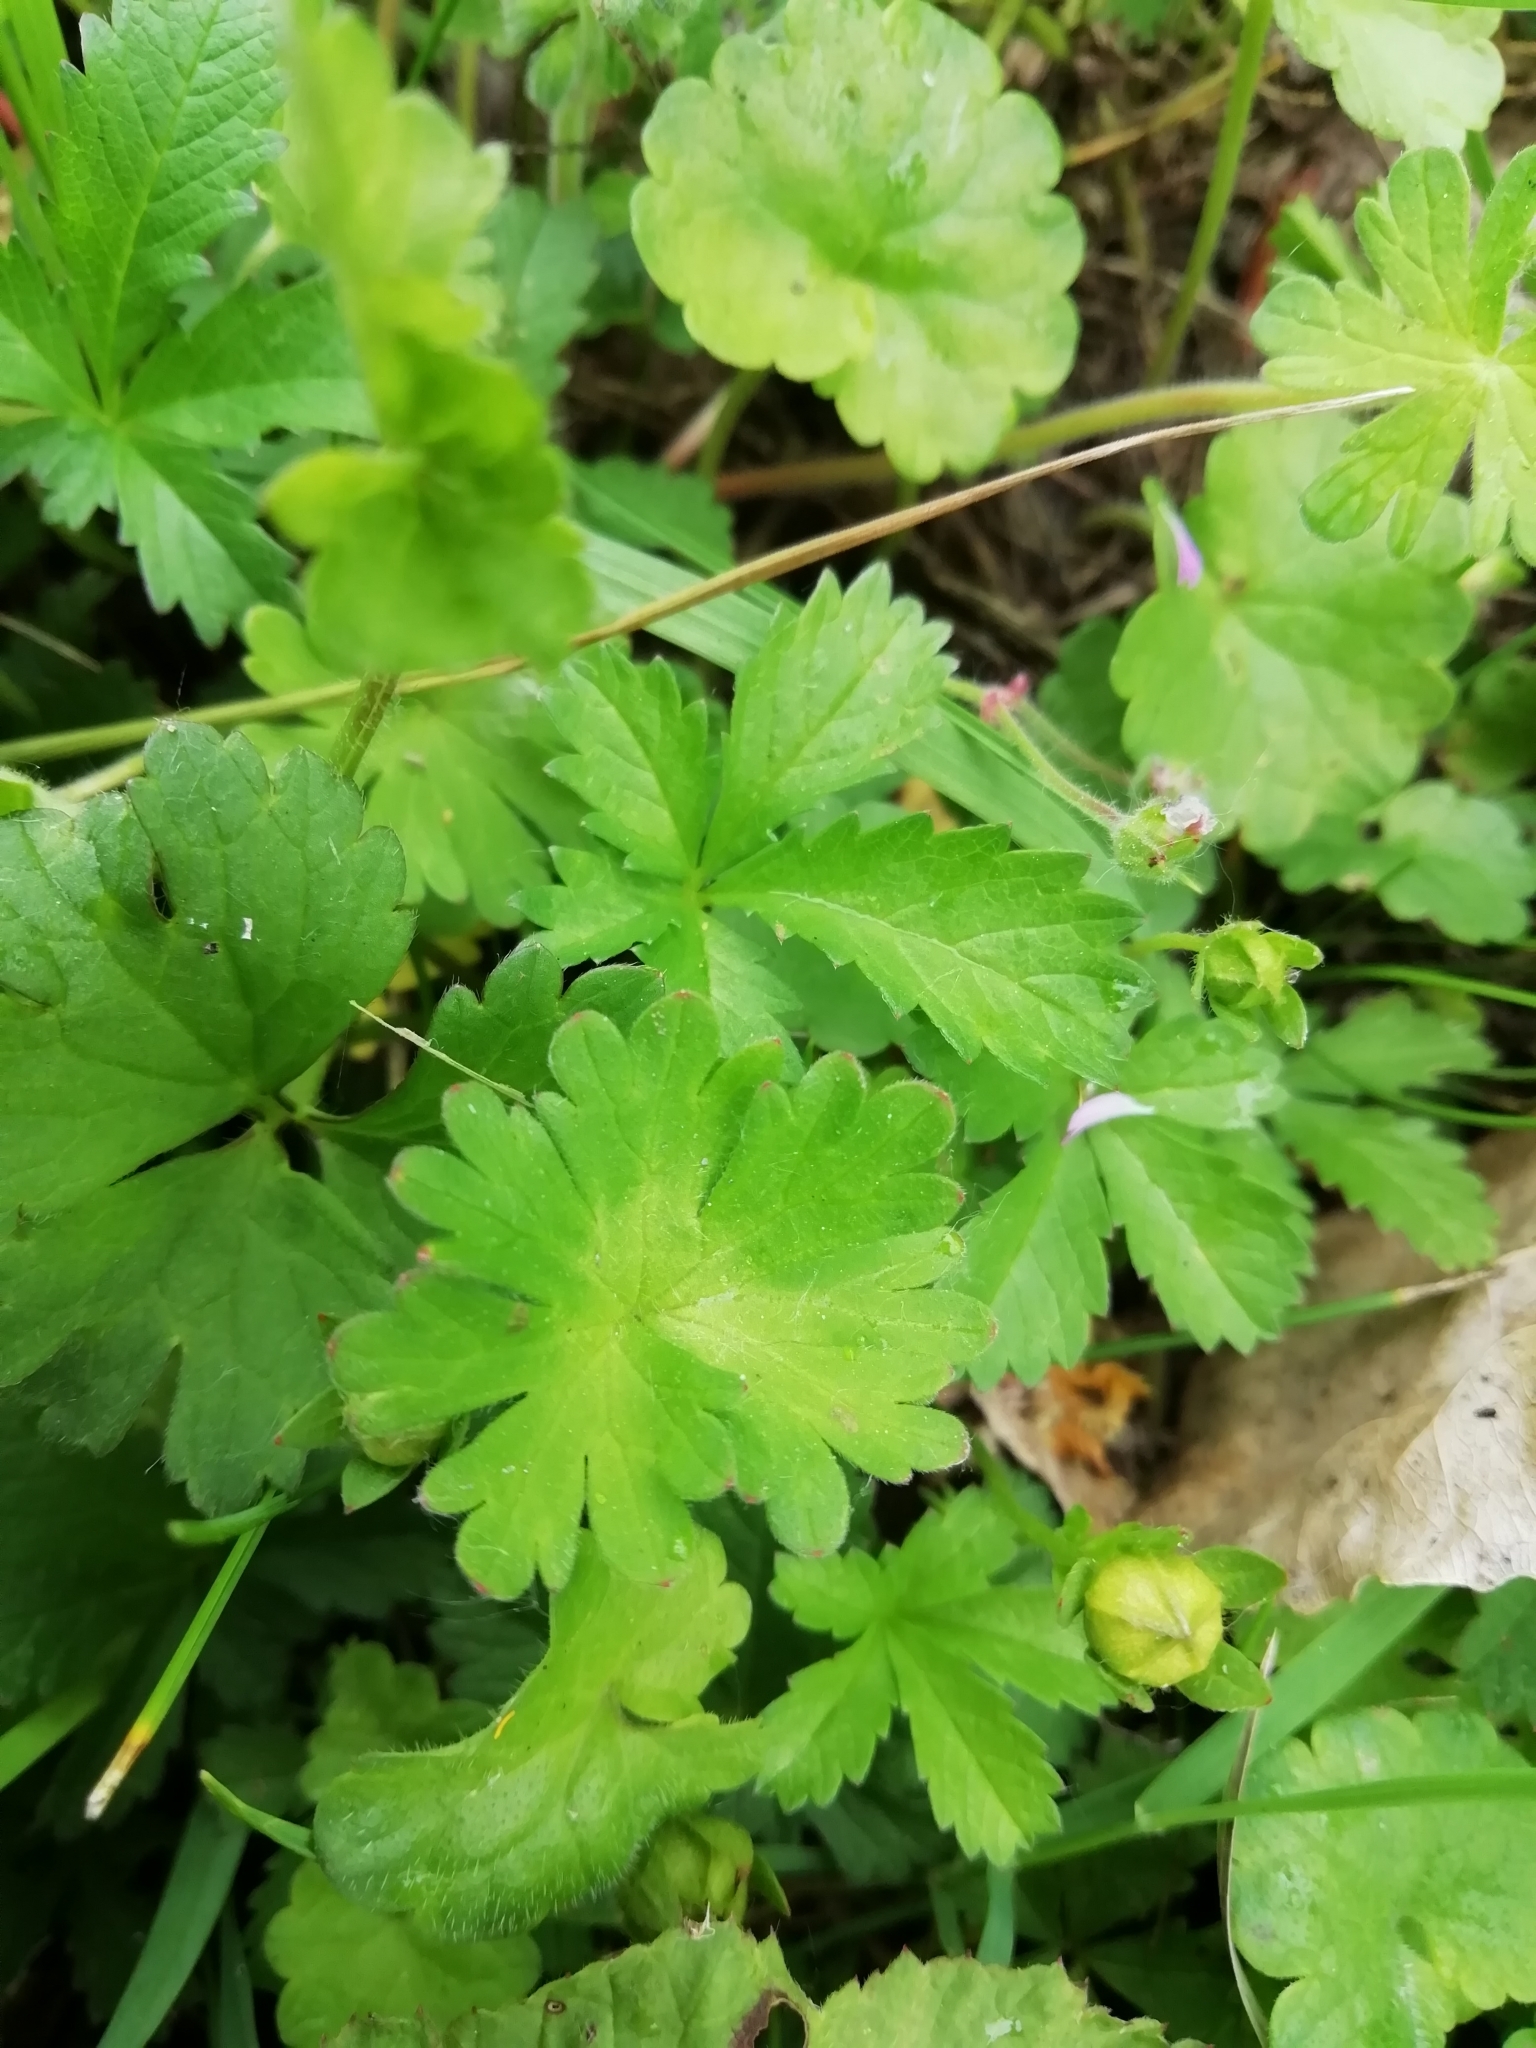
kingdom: Plantae
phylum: Tracheophyta
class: Magnoliopsida
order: Geraniales
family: Geraniaceae
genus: Geranium
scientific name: Geranium molle
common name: Dove's-foot crane's-bill
